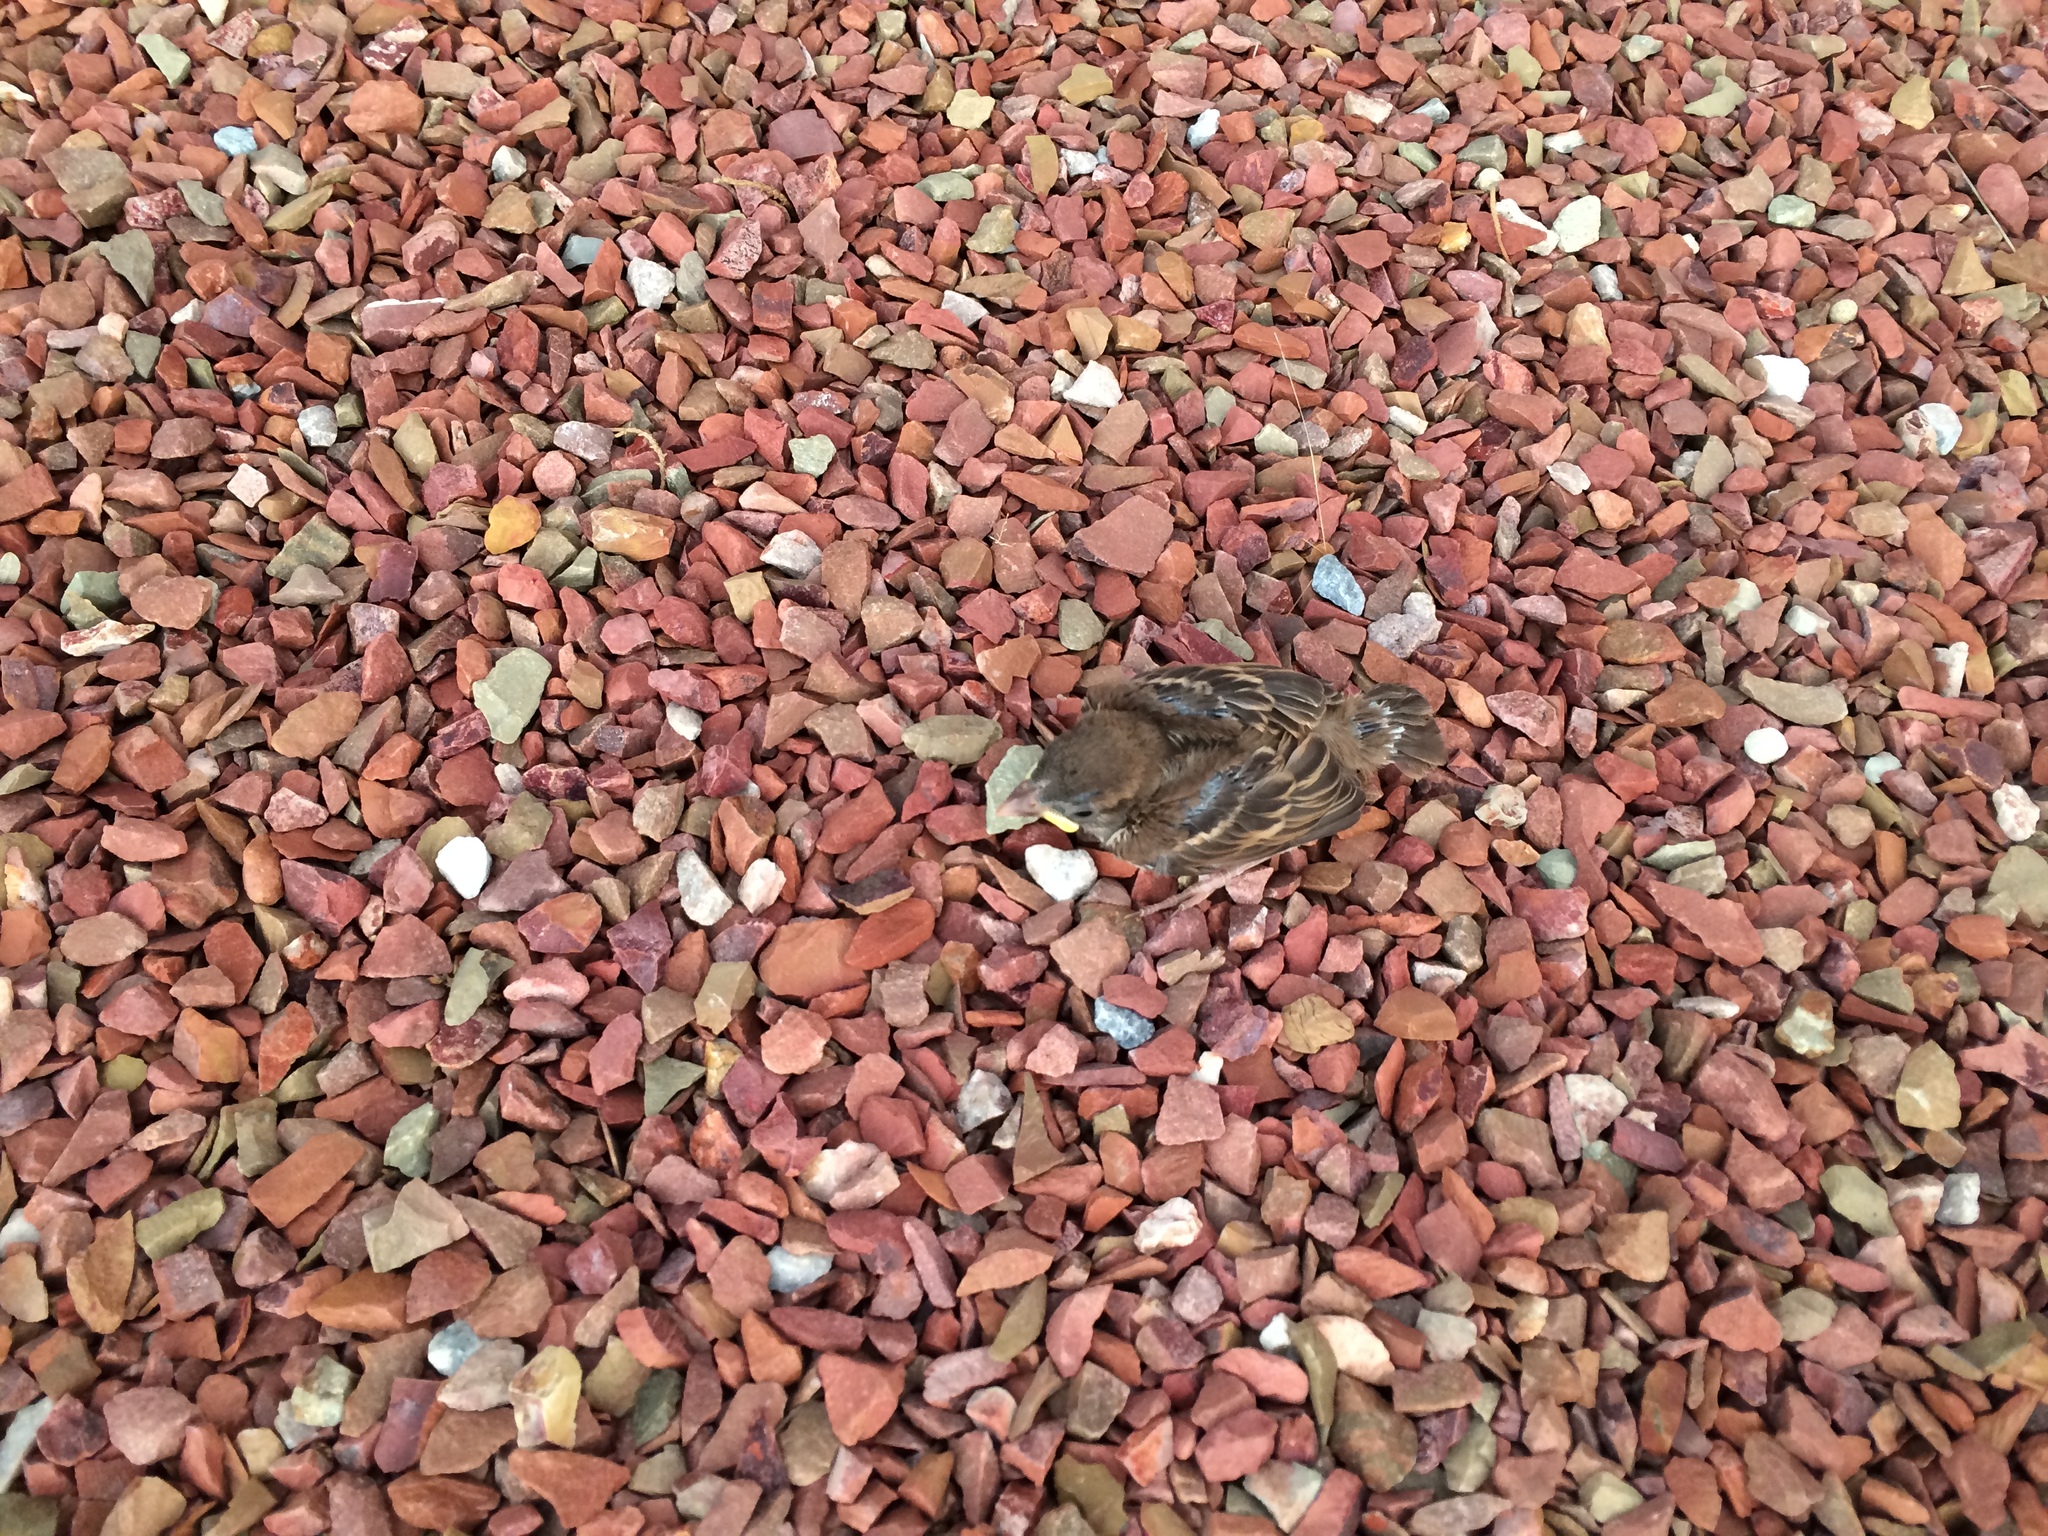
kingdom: Animalia
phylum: Chordata
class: Aves
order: Passeriformes
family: Passeridae
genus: Passer
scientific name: Passer domesticus
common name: House sparrow
